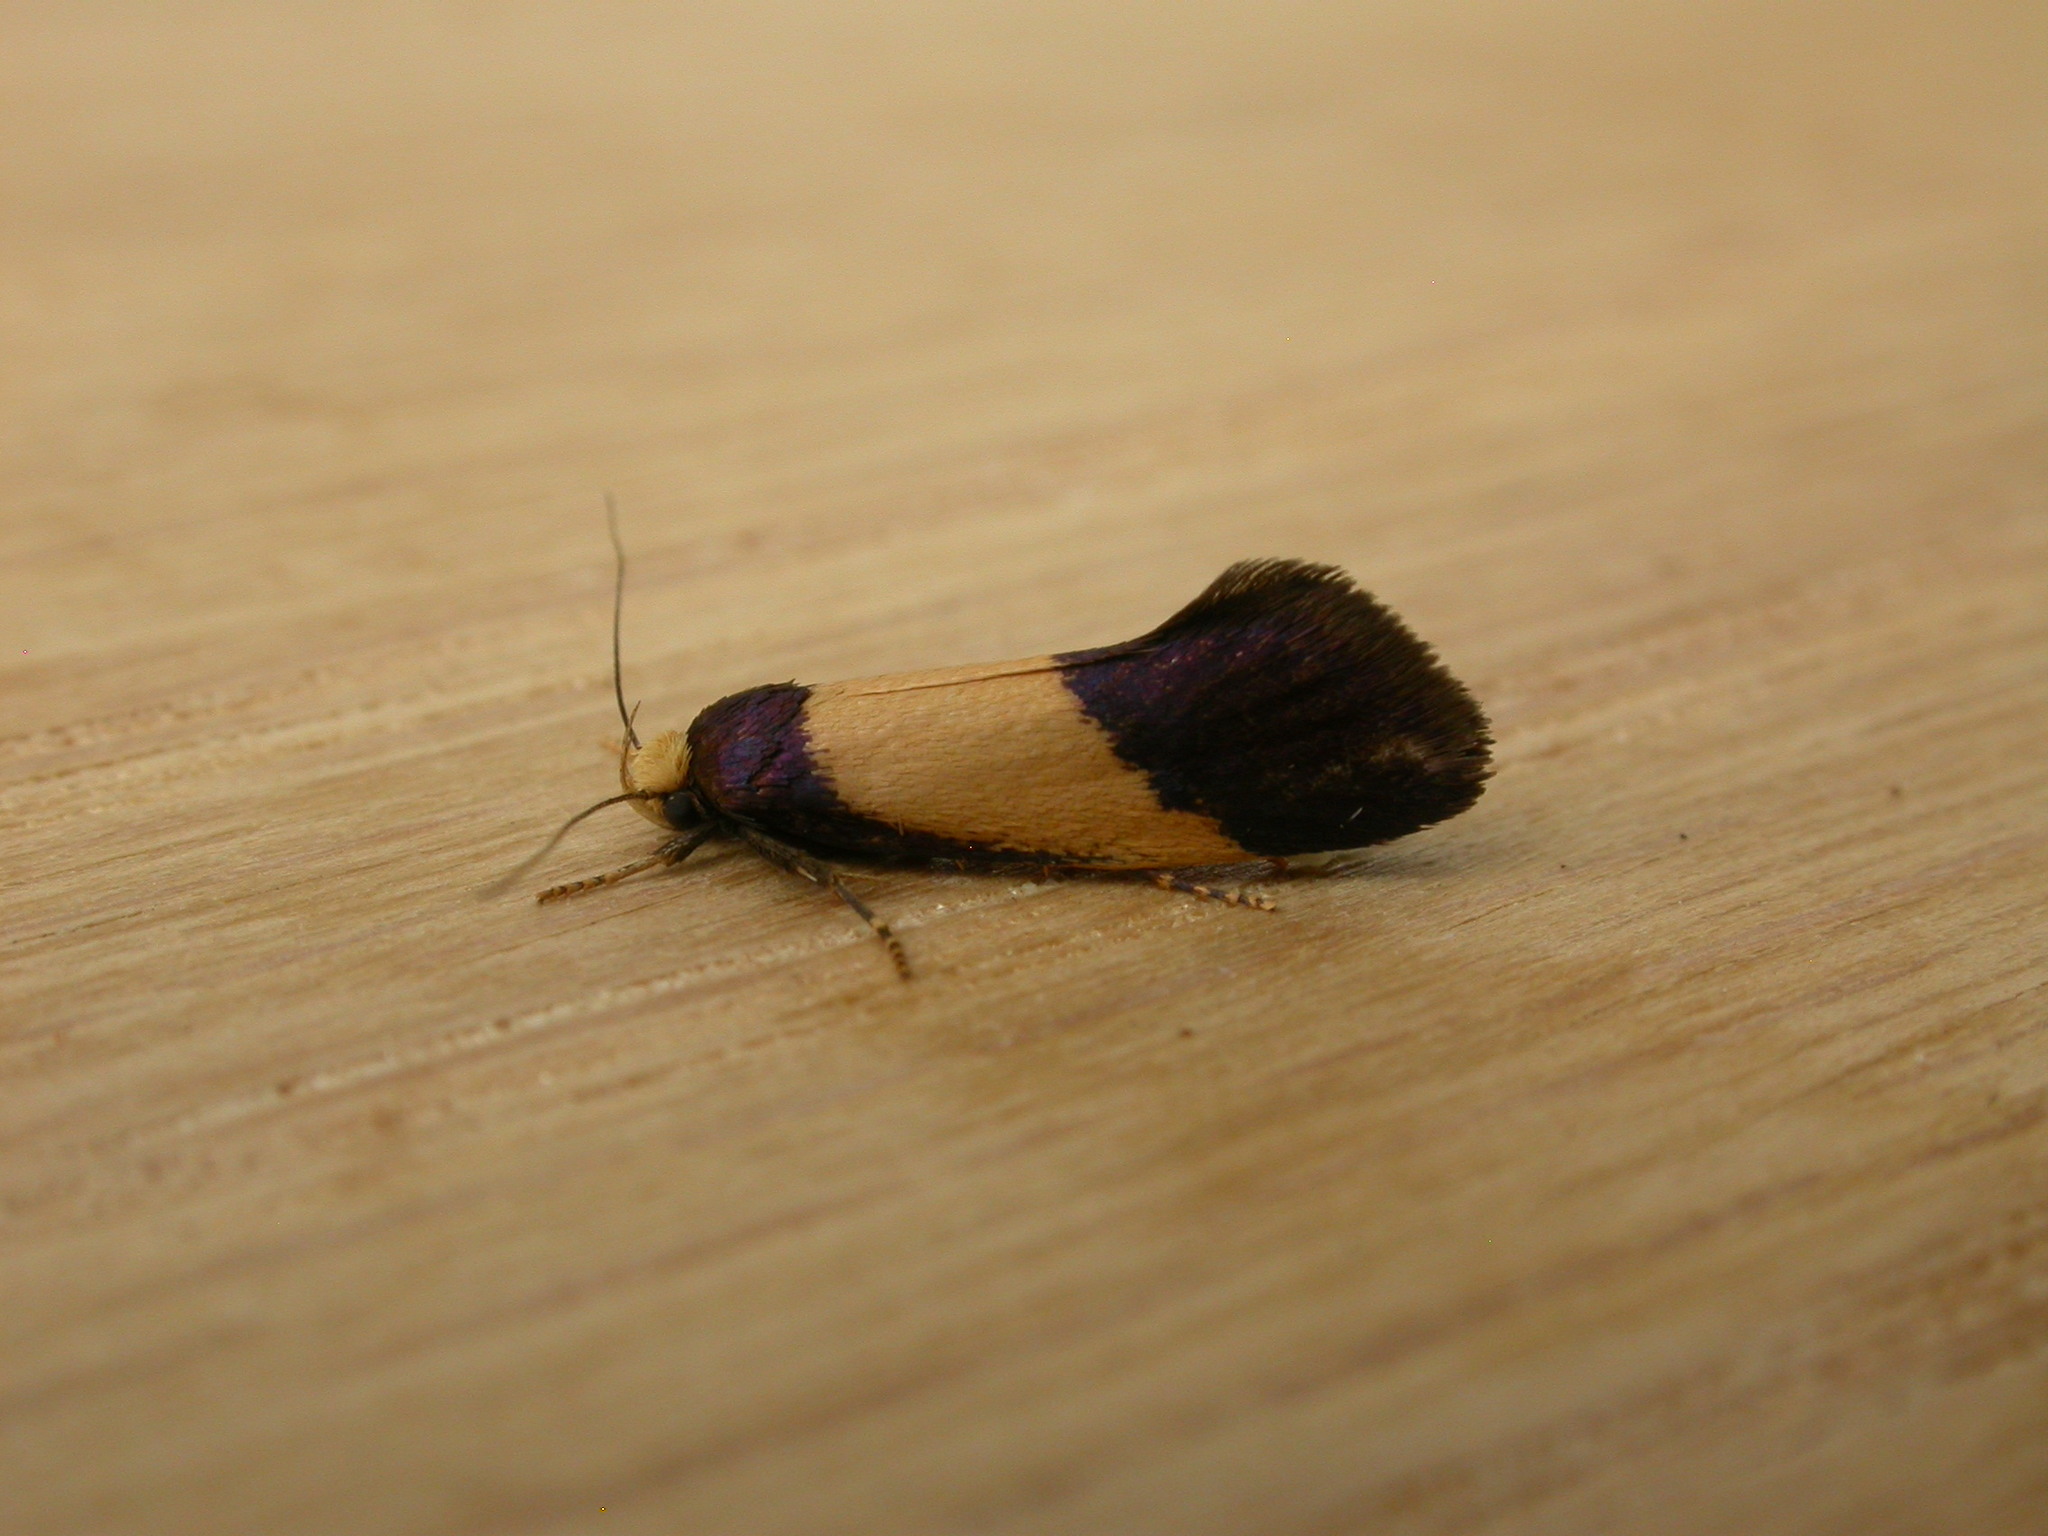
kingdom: Animalia
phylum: Arthropoda
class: Insecta
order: Lepidoptera
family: Oecophoridae
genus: Eulechria
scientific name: Eulechria heliophanes
